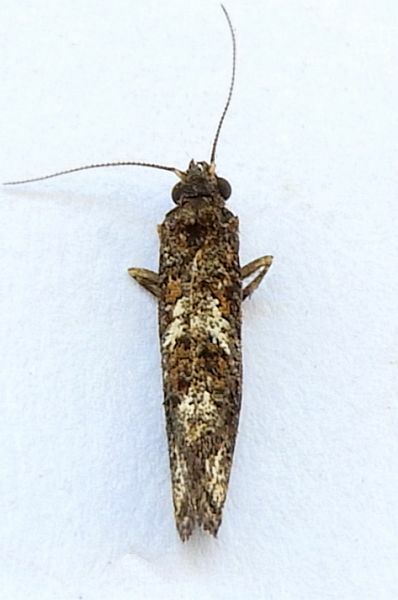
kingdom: Animalia
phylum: Arthropoda
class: Insecta
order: Lepidoptera
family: Tineidae
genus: Acrolophus
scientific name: Acrolophus cressoni
